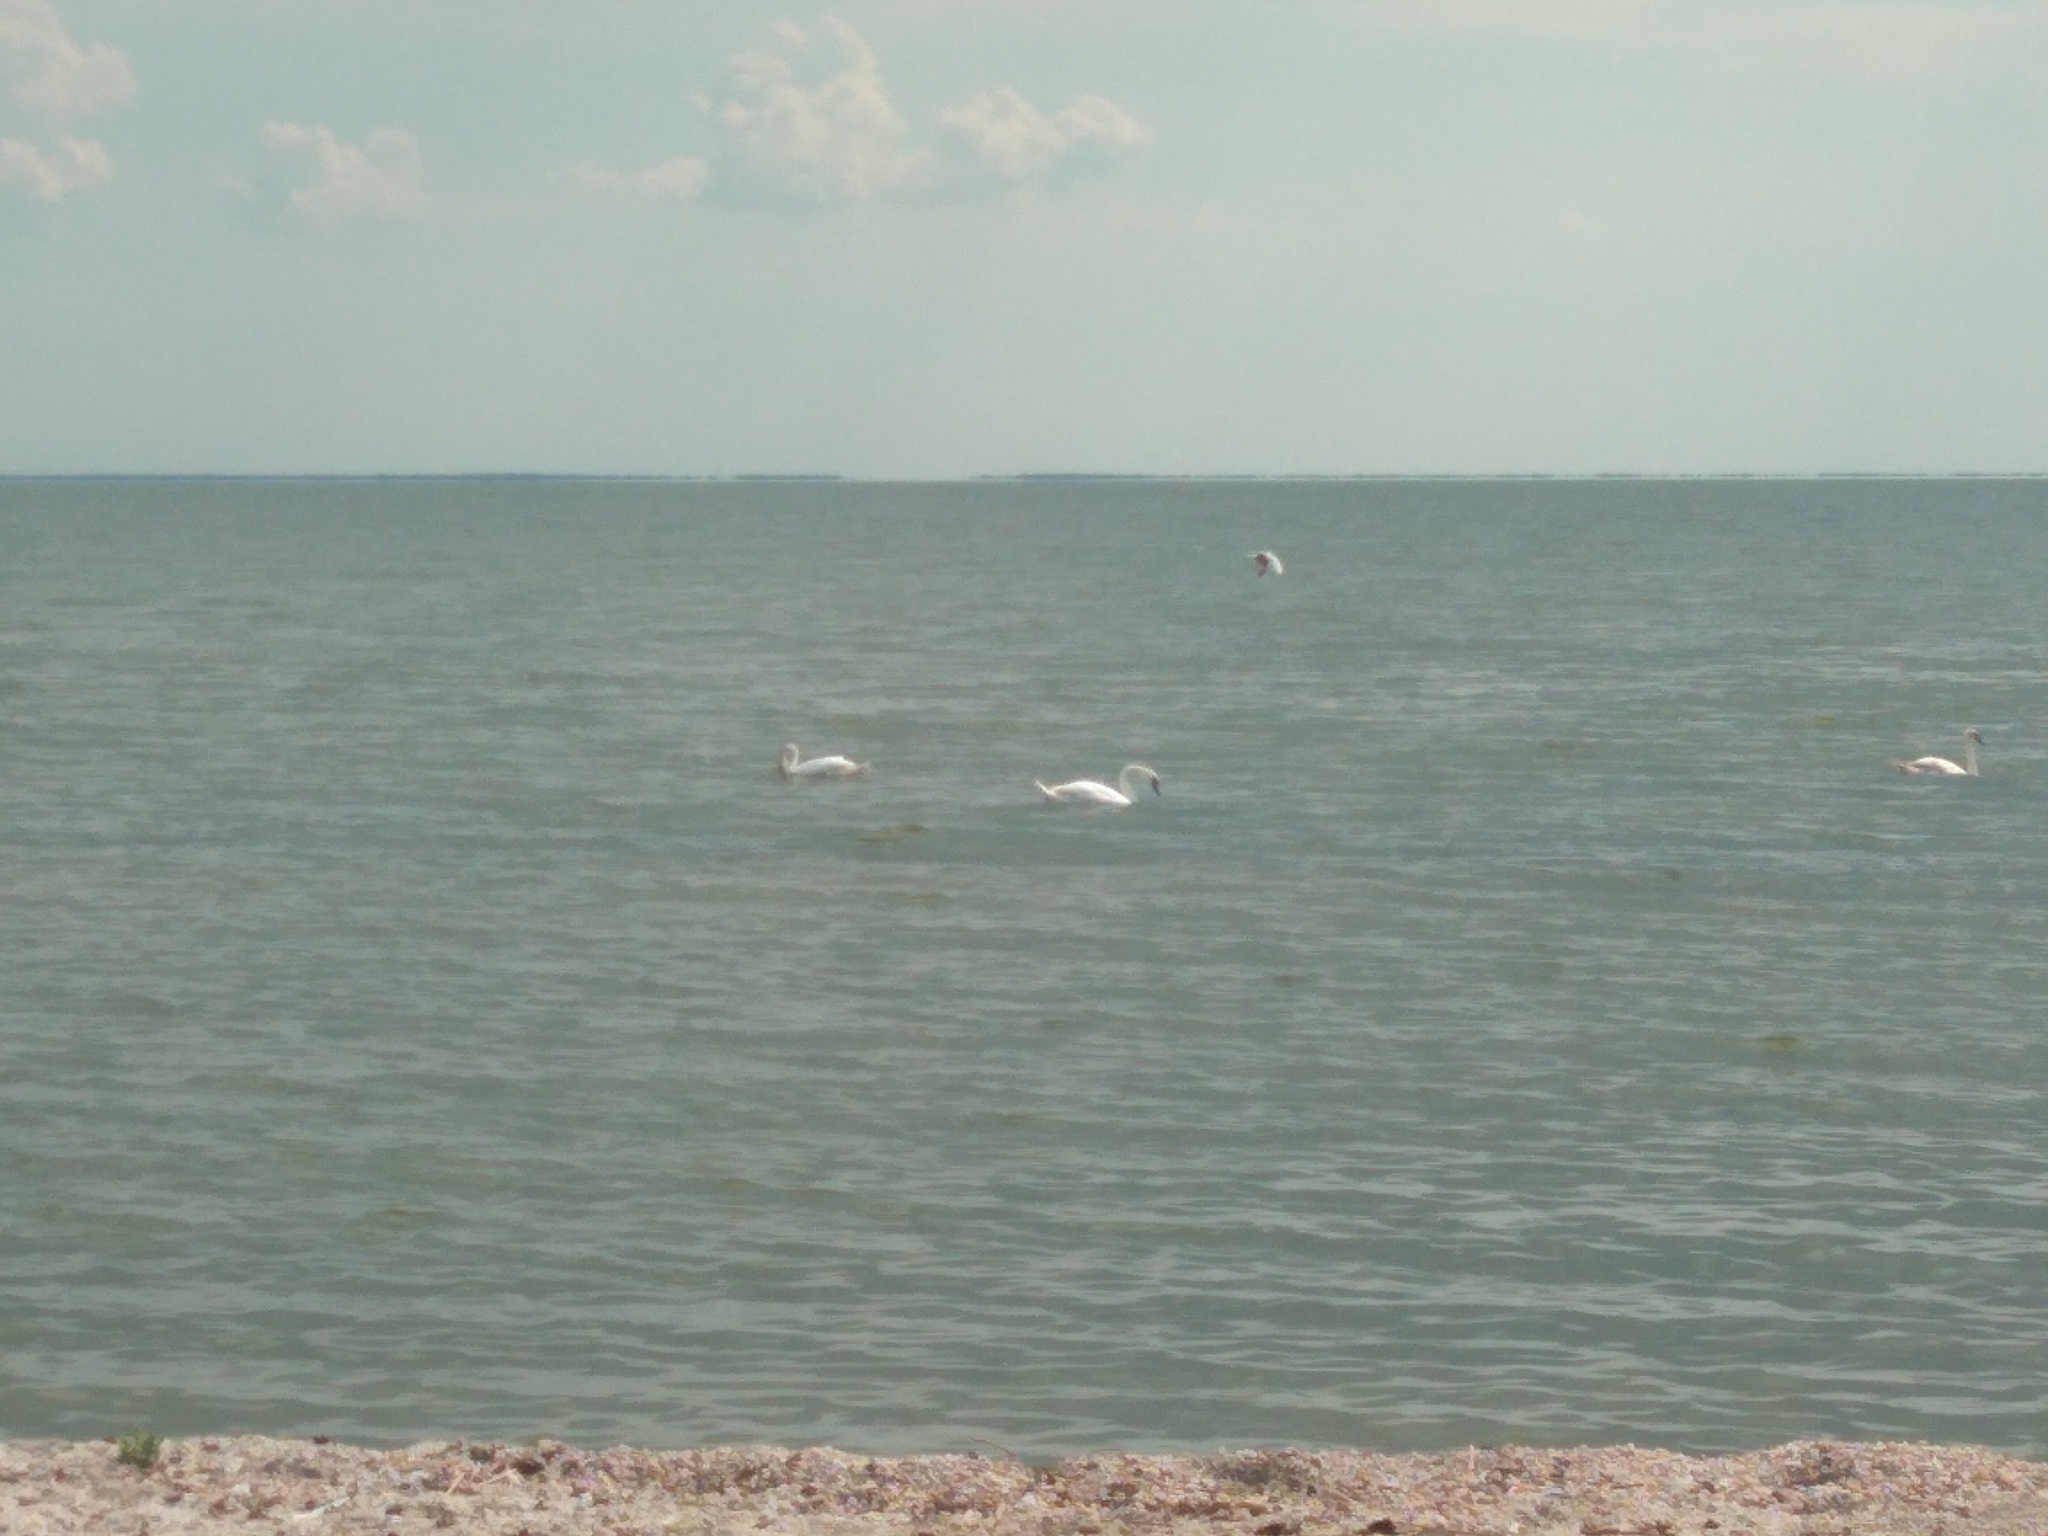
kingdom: Animalia
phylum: Chordata
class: Aves
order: Anseriformes
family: Anatidae
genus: Cygnus
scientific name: Cygnus olor
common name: Mute swan
